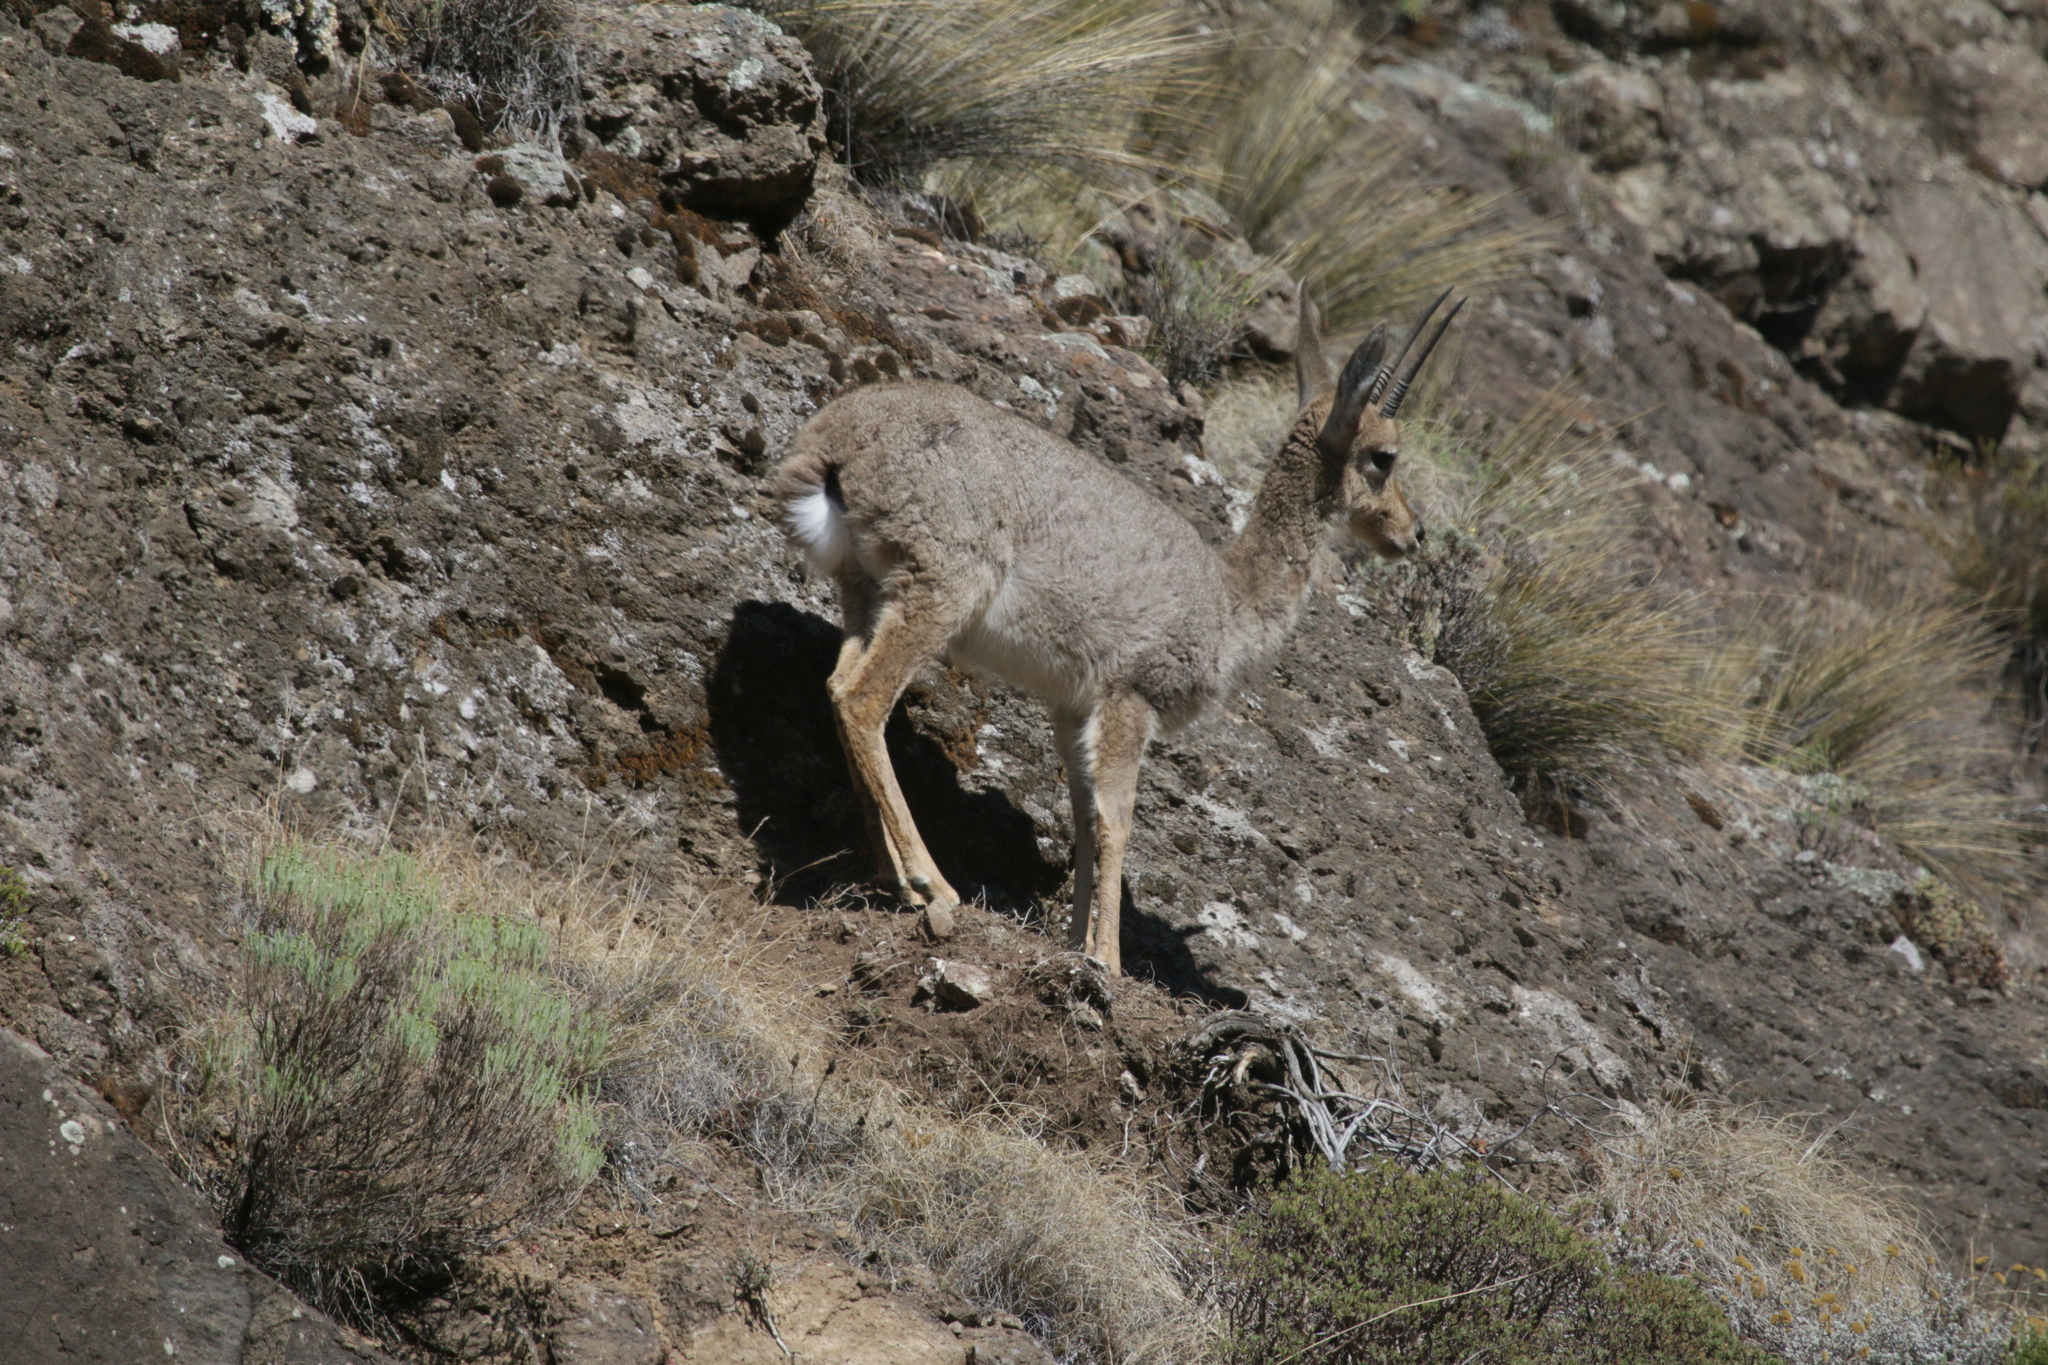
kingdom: Animalia
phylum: Chordata
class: Mammalia
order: Artiodactyla
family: Bovidae
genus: Pelea
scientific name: Pelea capreolus
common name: Common rhebok
